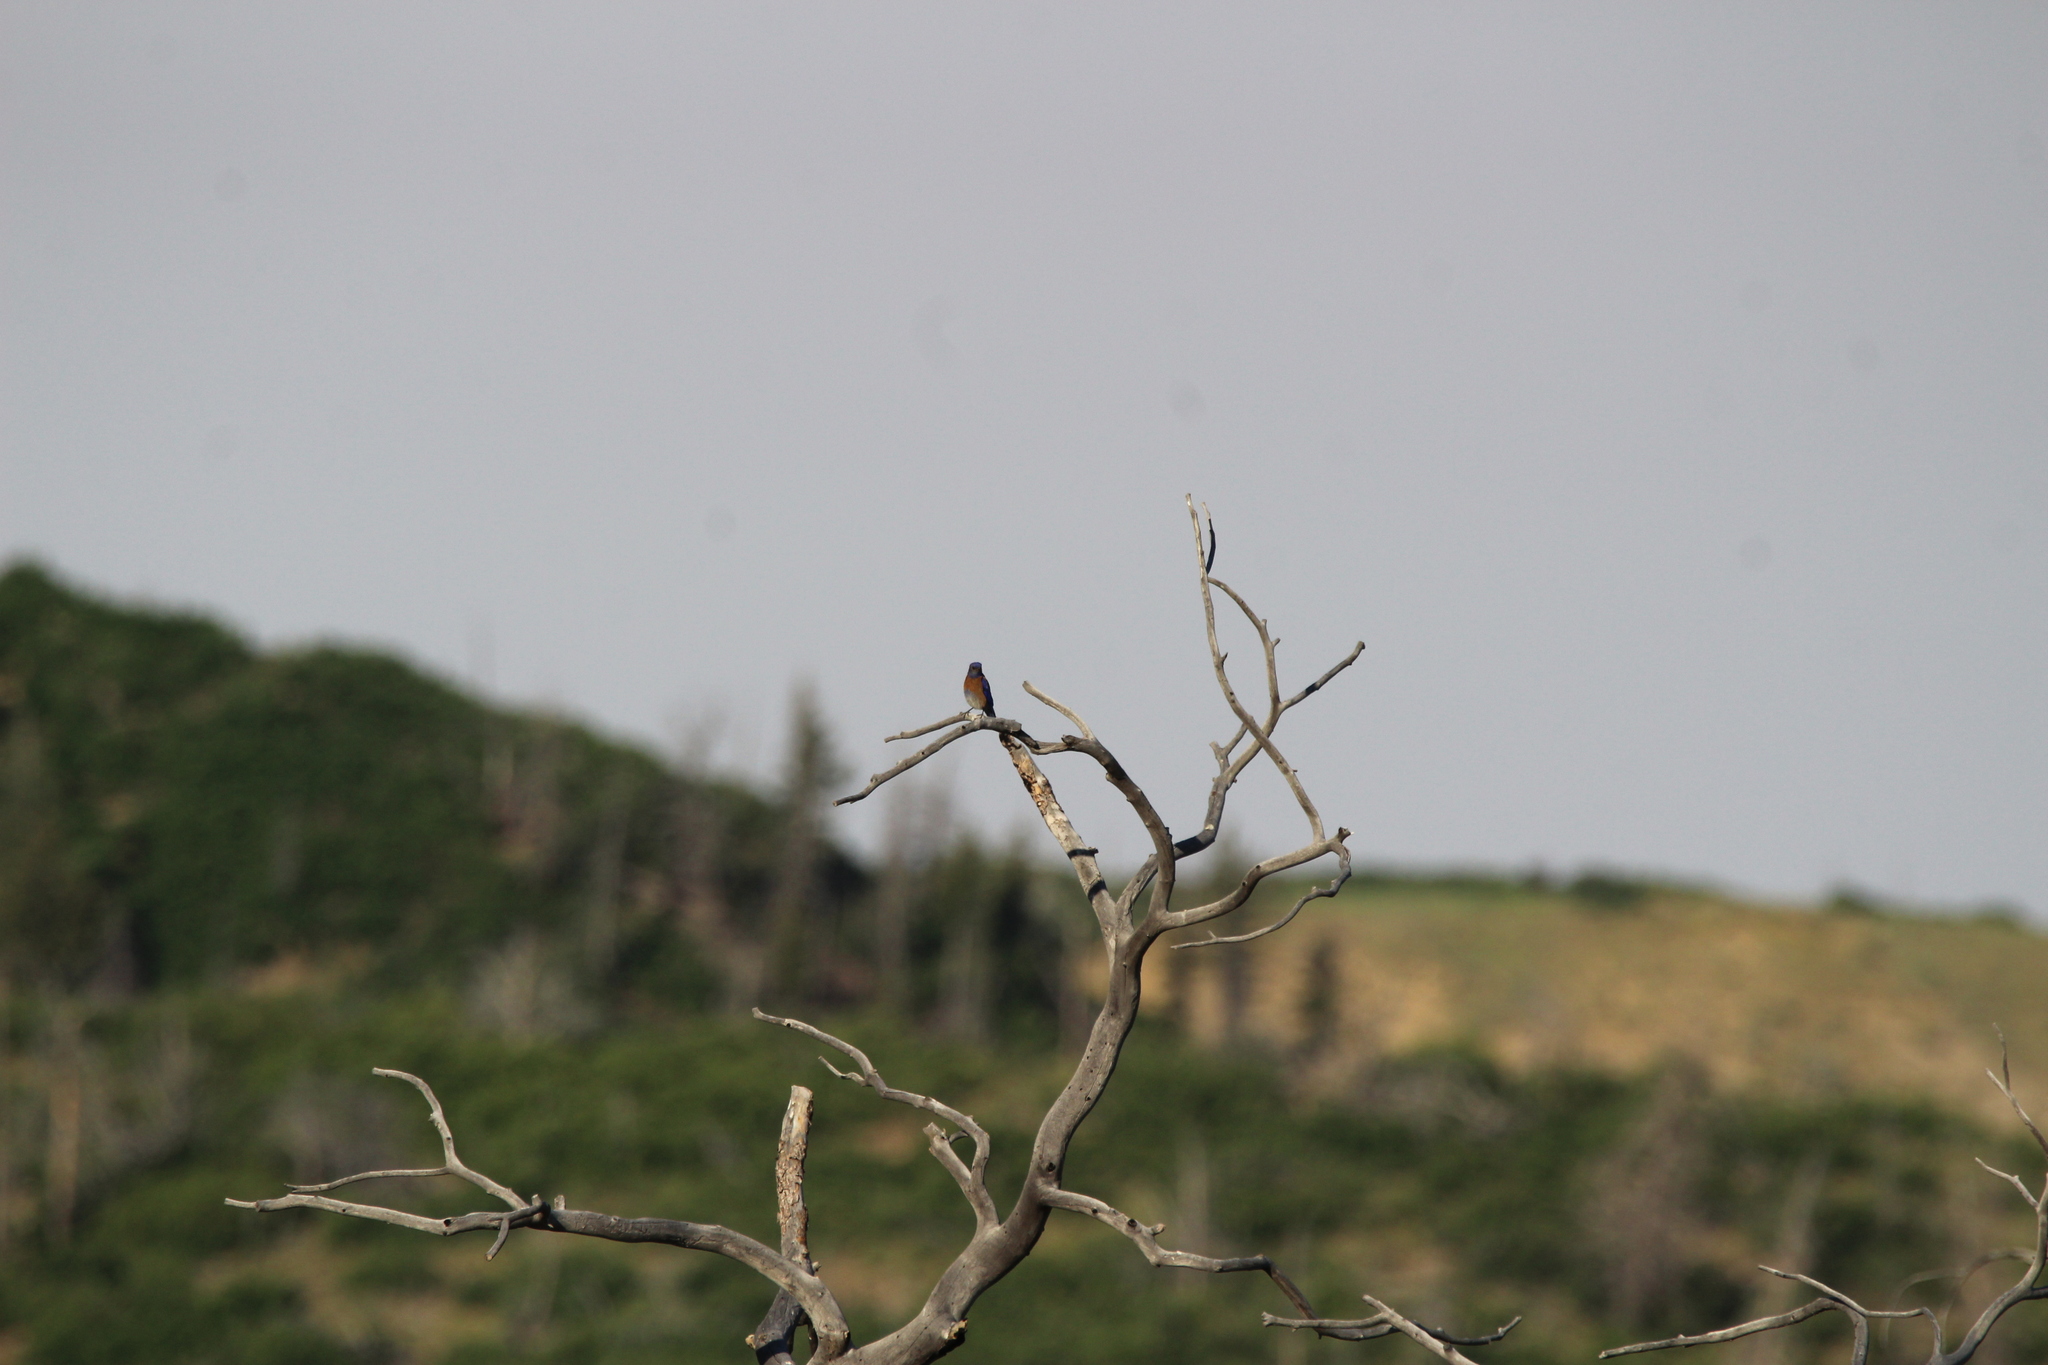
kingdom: Animalia
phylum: Chordata
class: Aves
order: Passeriformes
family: Turdidae
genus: Sialia
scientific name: Sialia mexicana
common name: Western bluebird
